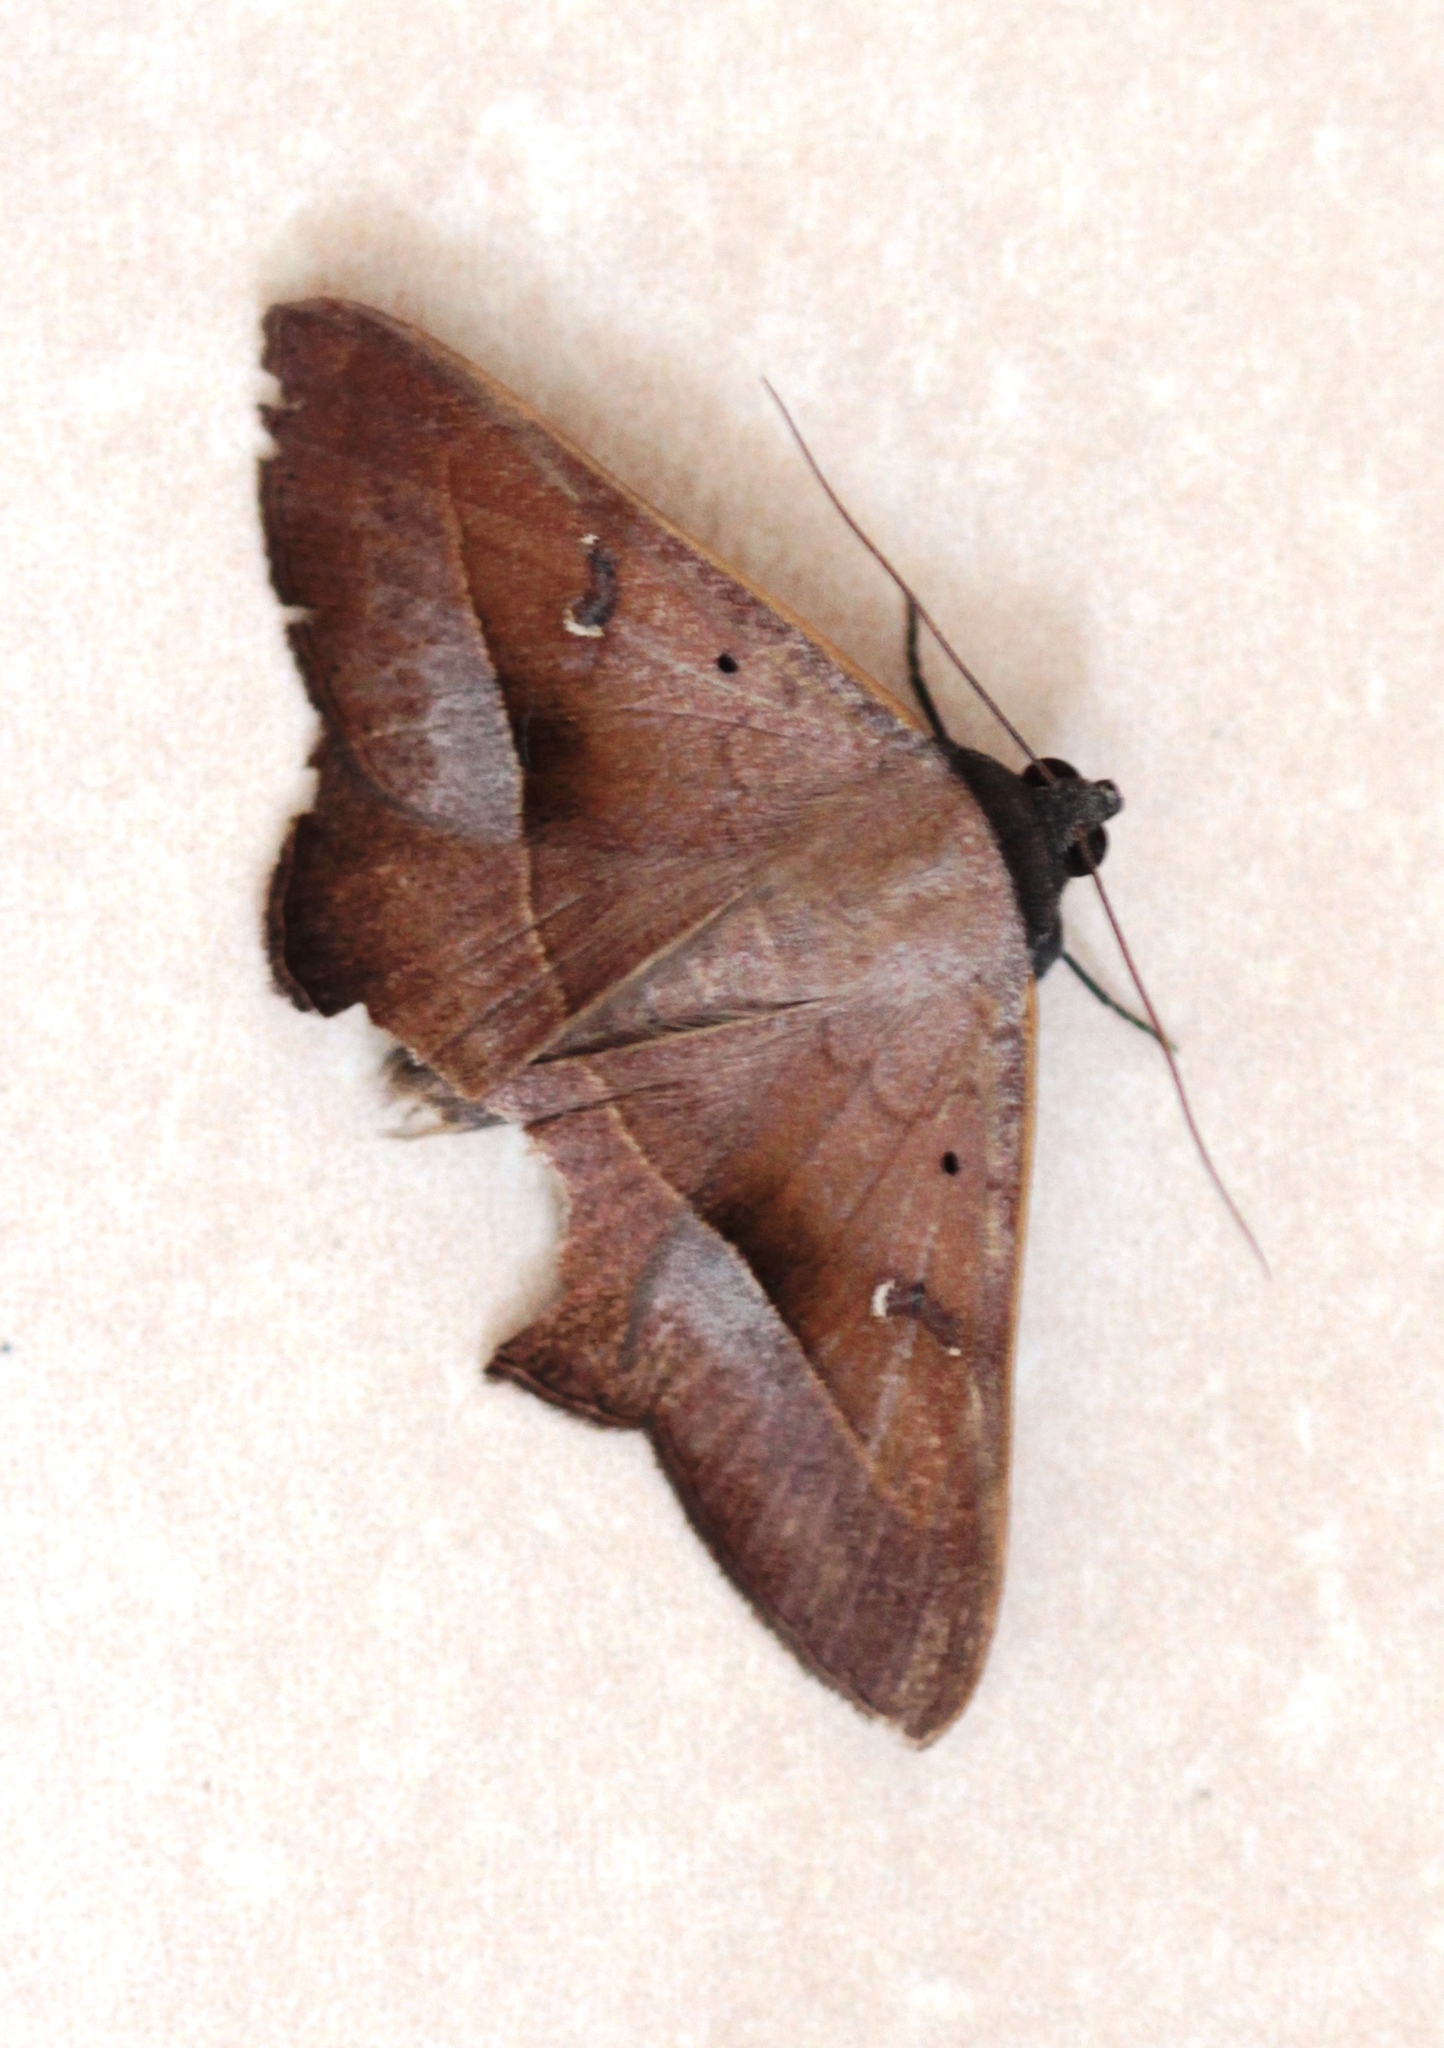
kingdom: Animalia
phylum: Arthropoda
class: Insecta
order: Lepidoptera
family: Erebidae
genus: Epidromia
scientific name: Epidromia conspersata
